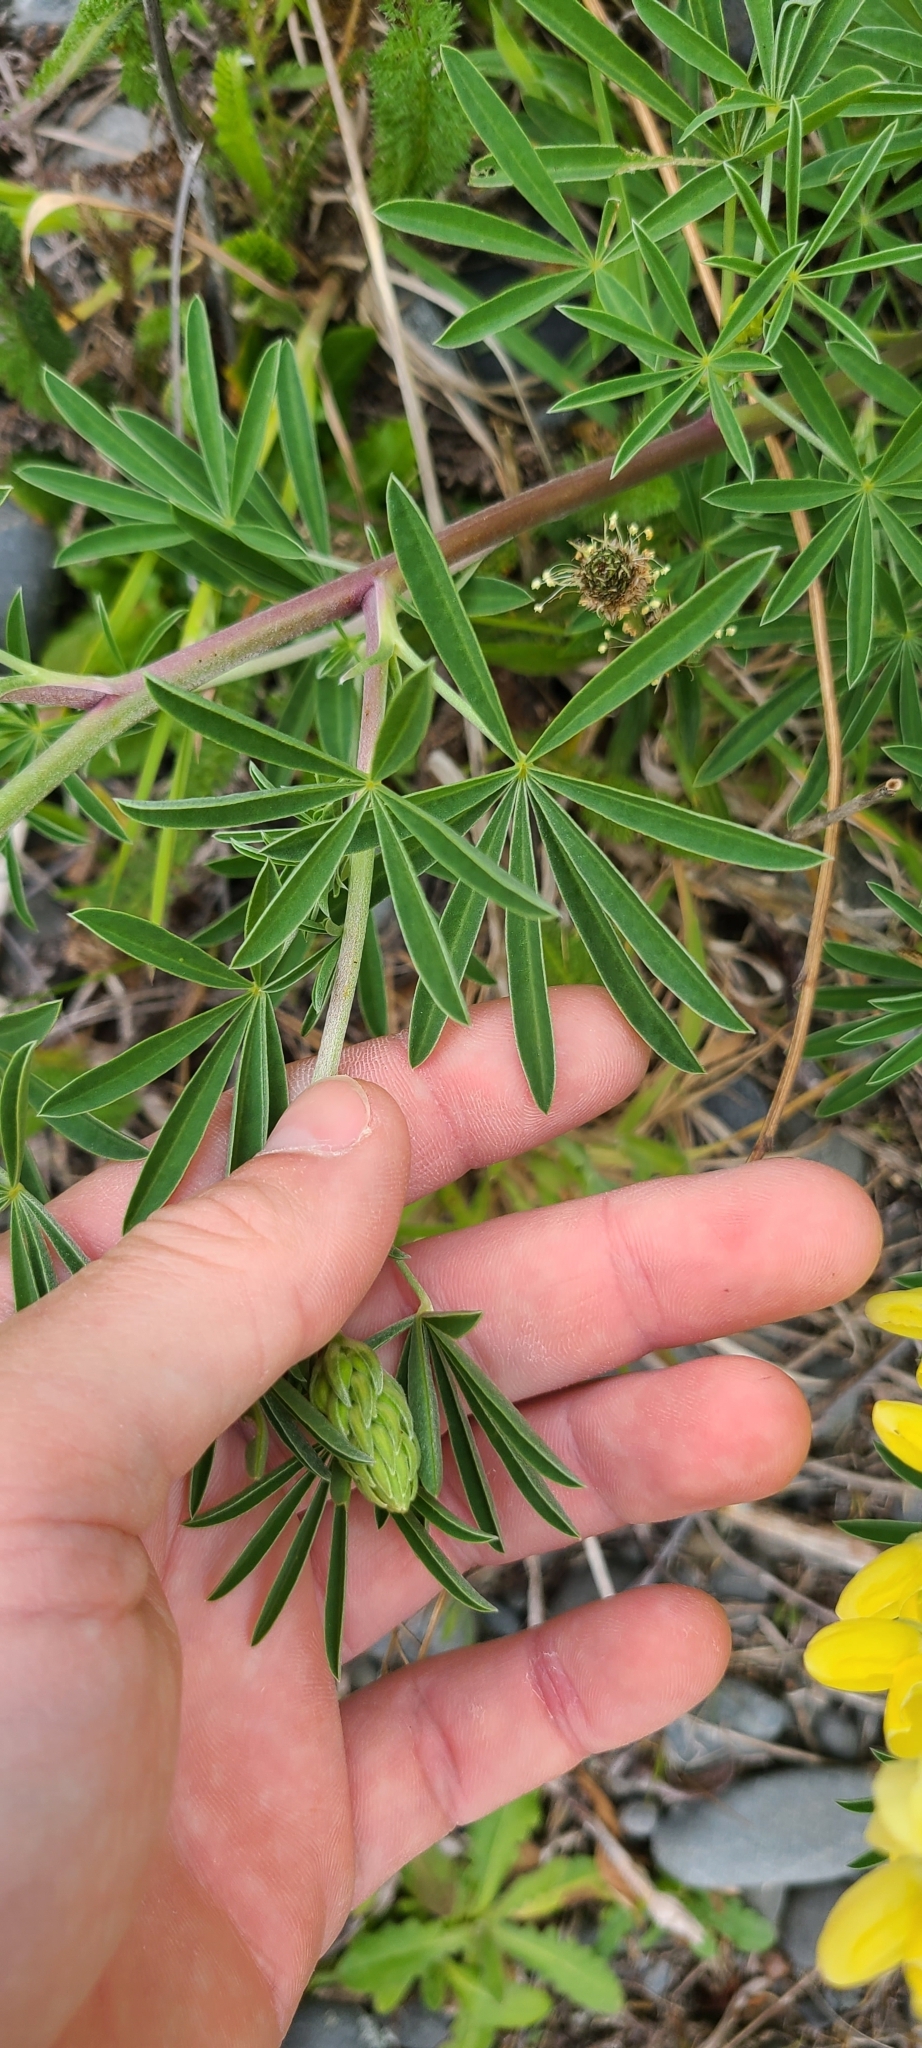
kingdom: Plantae
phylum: Tracheophyta
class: Magnoliopsida
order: Fabales
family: Fabaceae
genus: Lupinus
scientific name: Lupinus arboreus
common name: Yellow bush lupine
